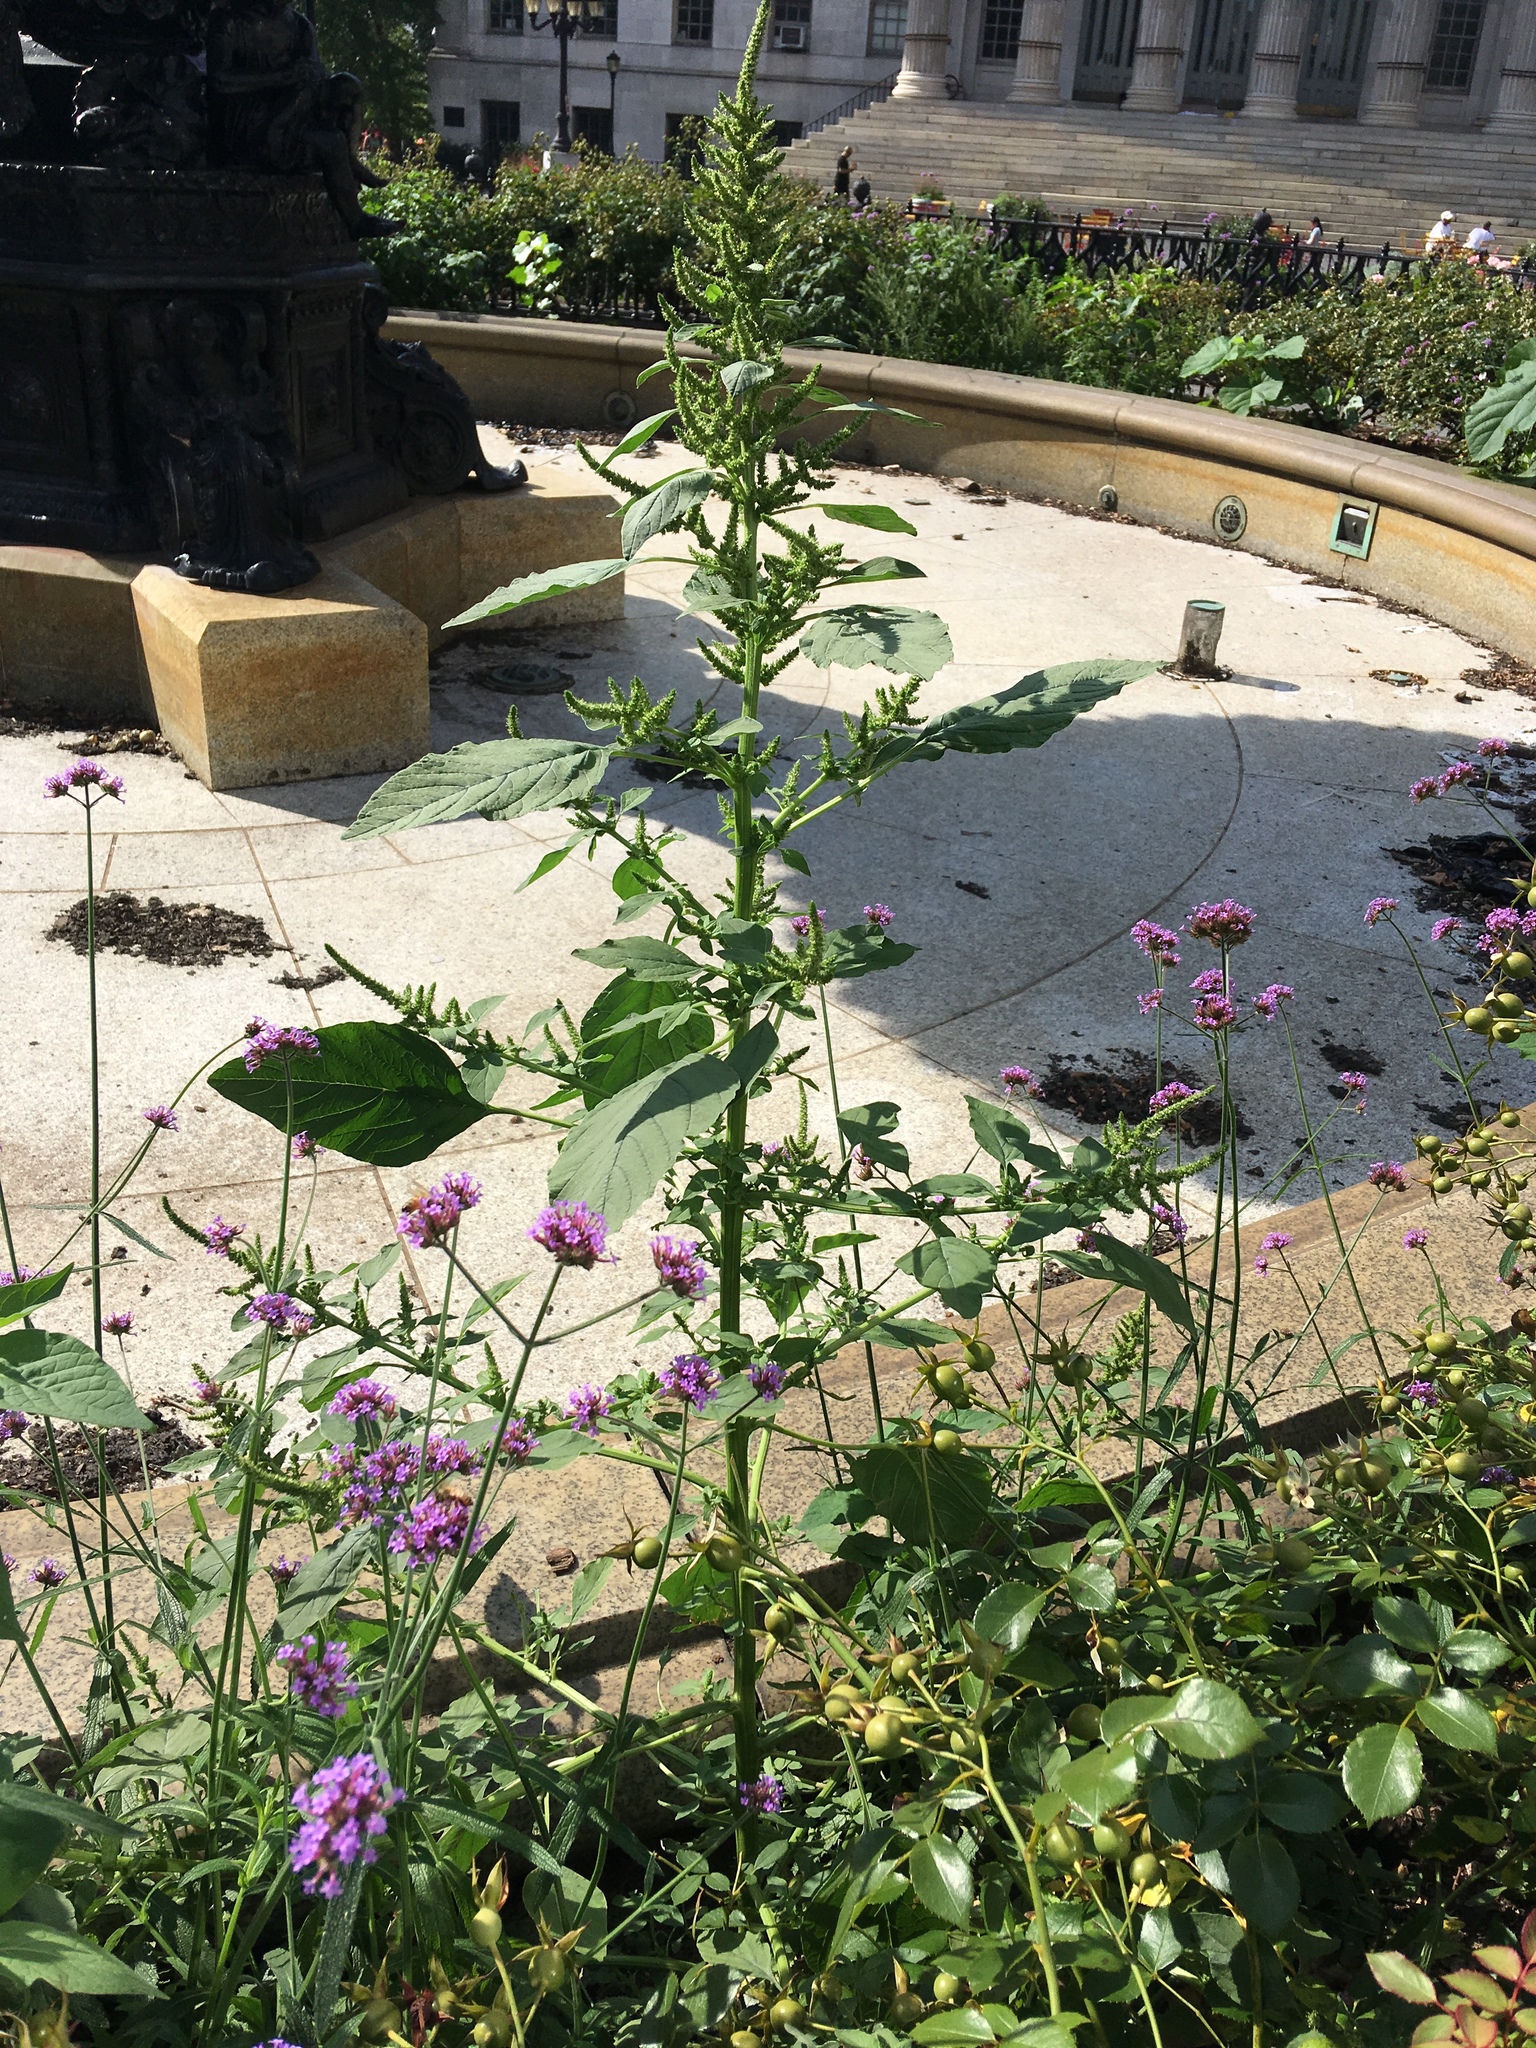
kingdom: Plantae
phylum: Tracheophyta
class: Magnoliopsida
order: Caryophyllales
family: Amaranthaceae
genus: Amaranthus
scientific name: Amaranthus retroflexus
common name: Redroot amaranth
